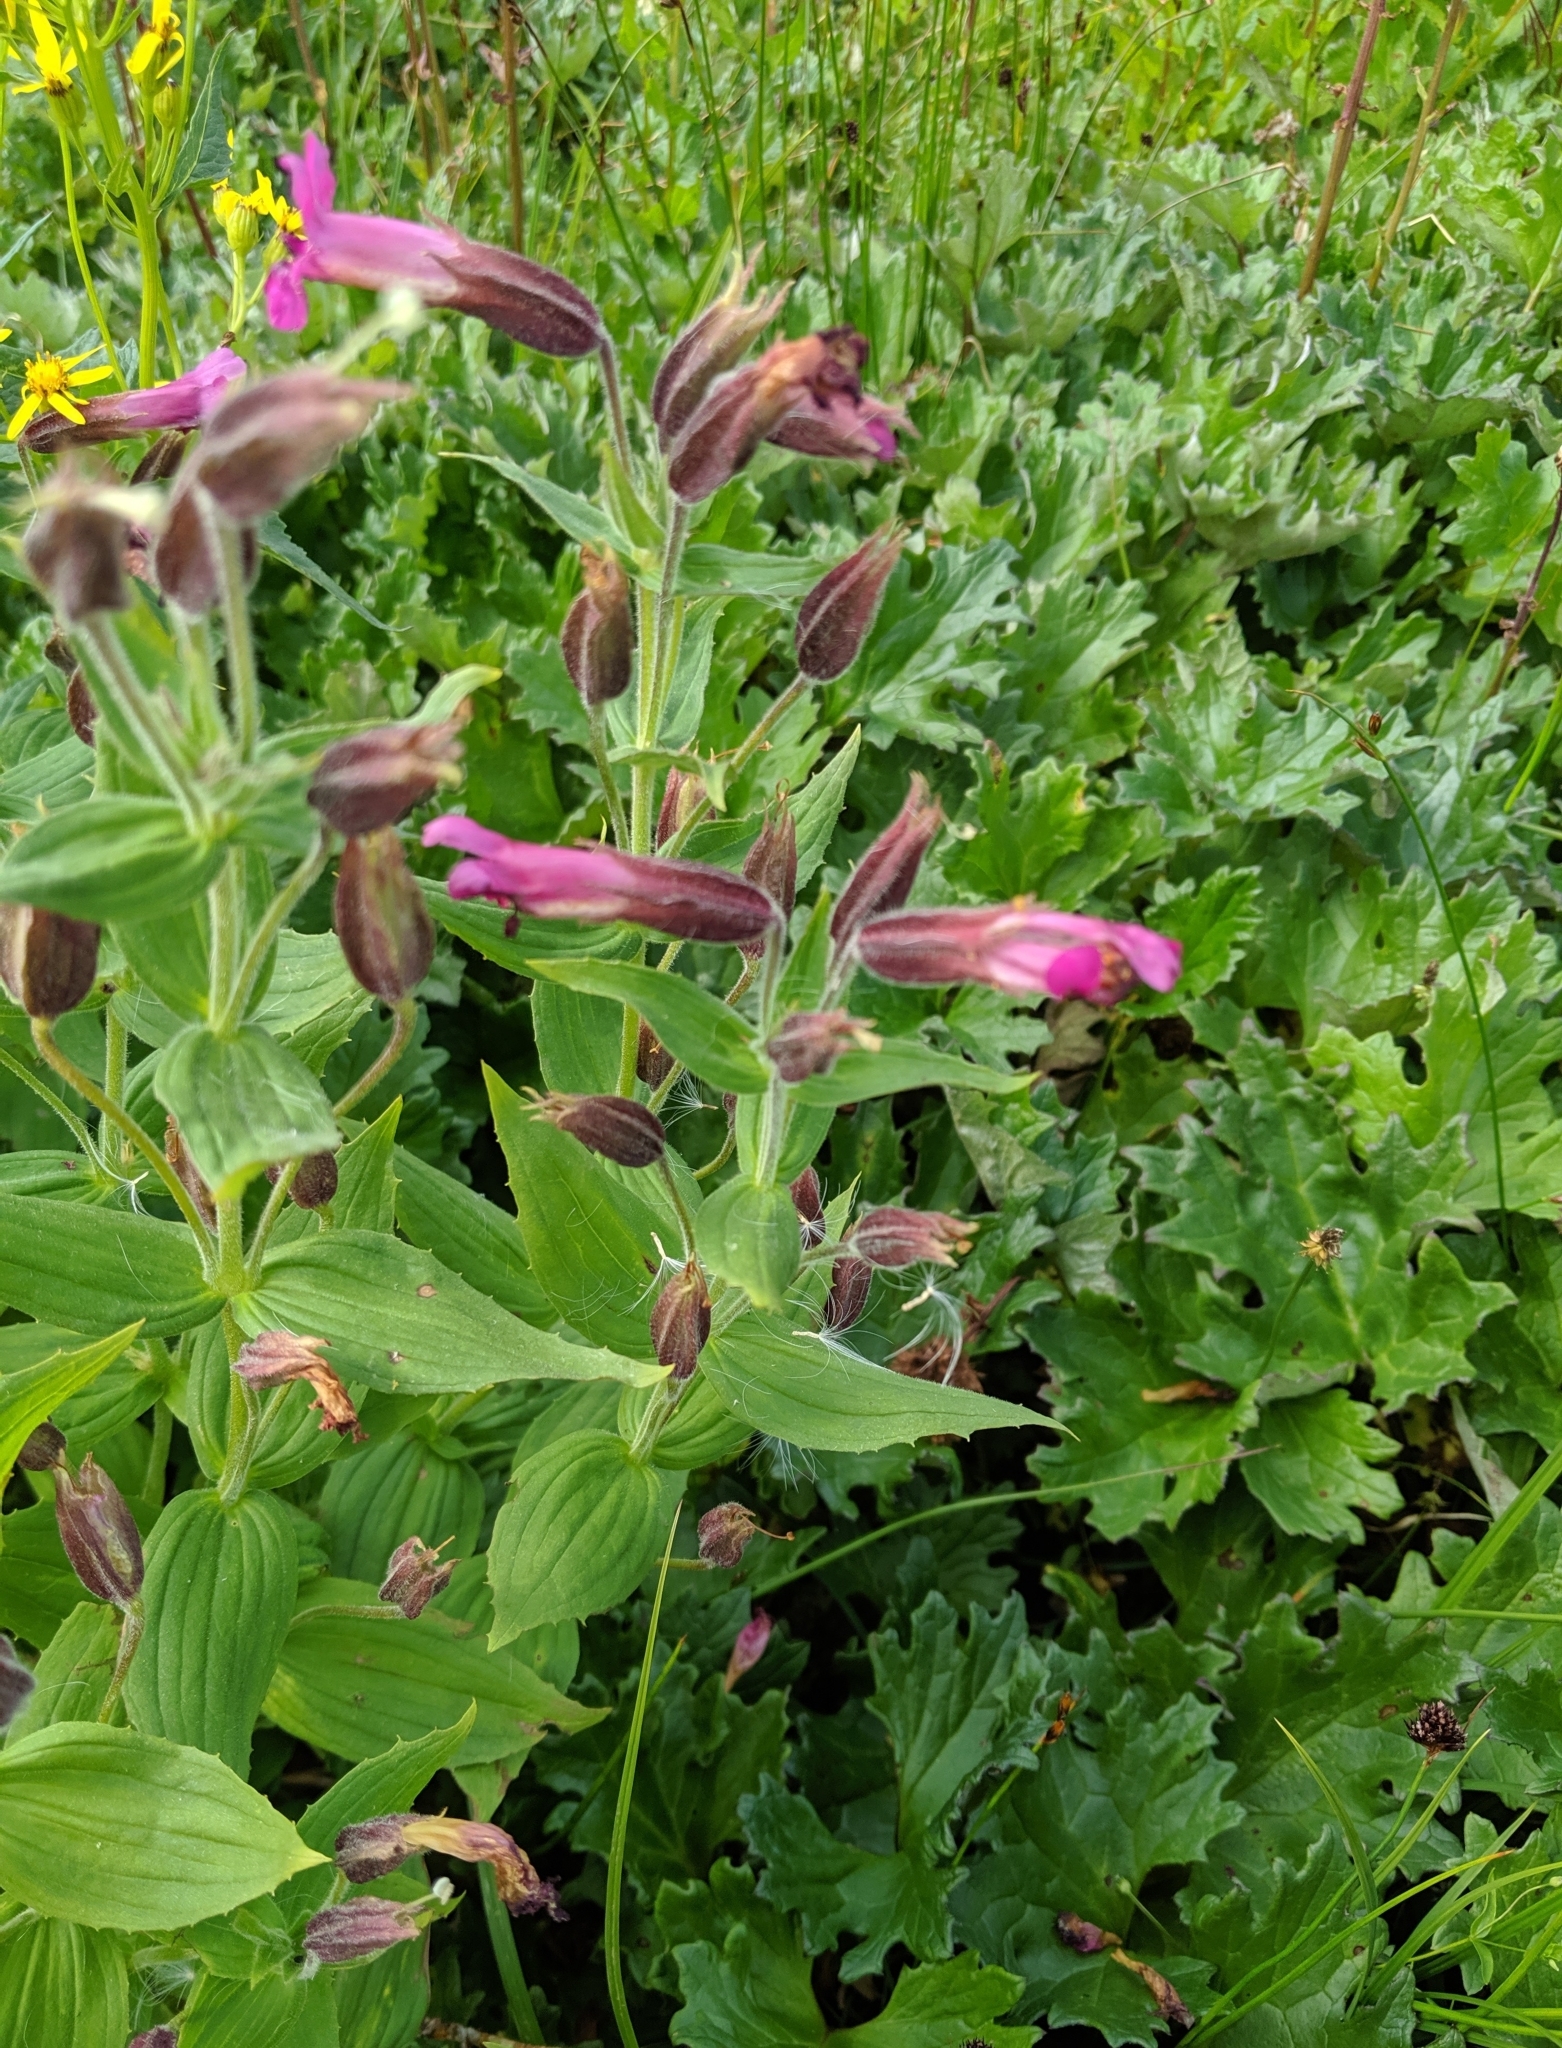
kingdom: Plantae
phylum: Tracheophyta
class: Magnoliopsida
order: Lamiales
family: Phrymaceae
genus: Erythranthe
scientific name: Erythranthe lewisii
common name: Lewis's monkey-flower
